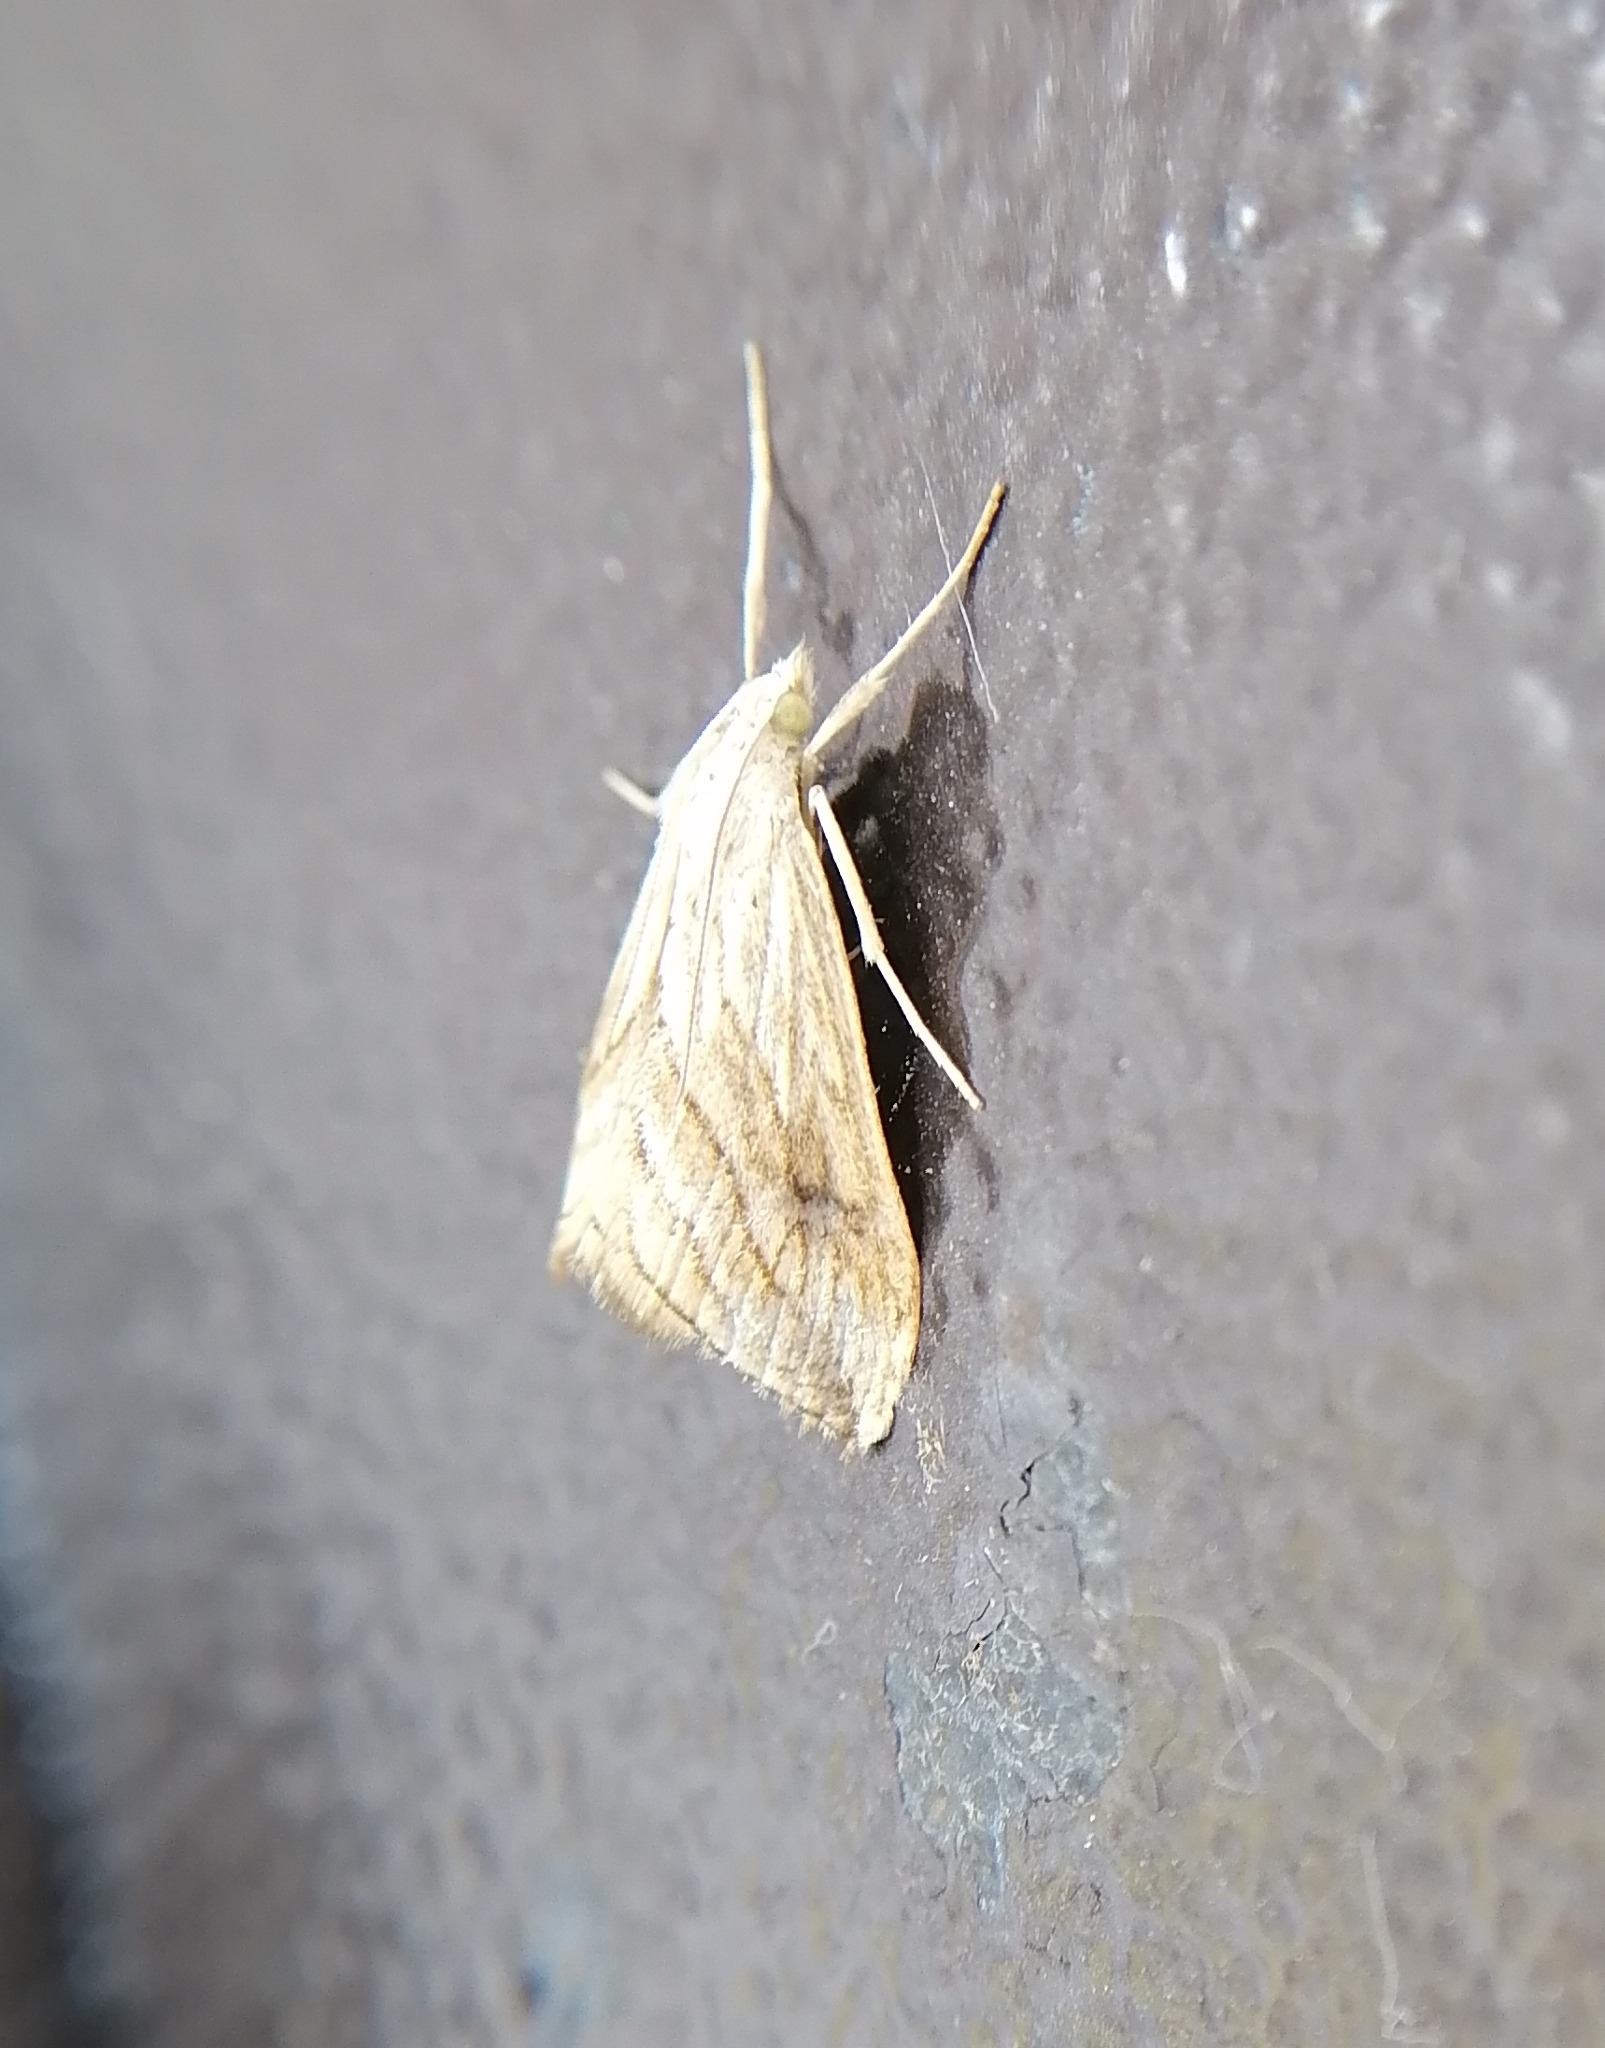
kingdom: Animalia
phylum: Arthropoda
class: Insecta
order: Lepidoptera
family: Crambidae
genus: Evergestis
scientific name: Evergestis forficalis
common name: Garden pebble
